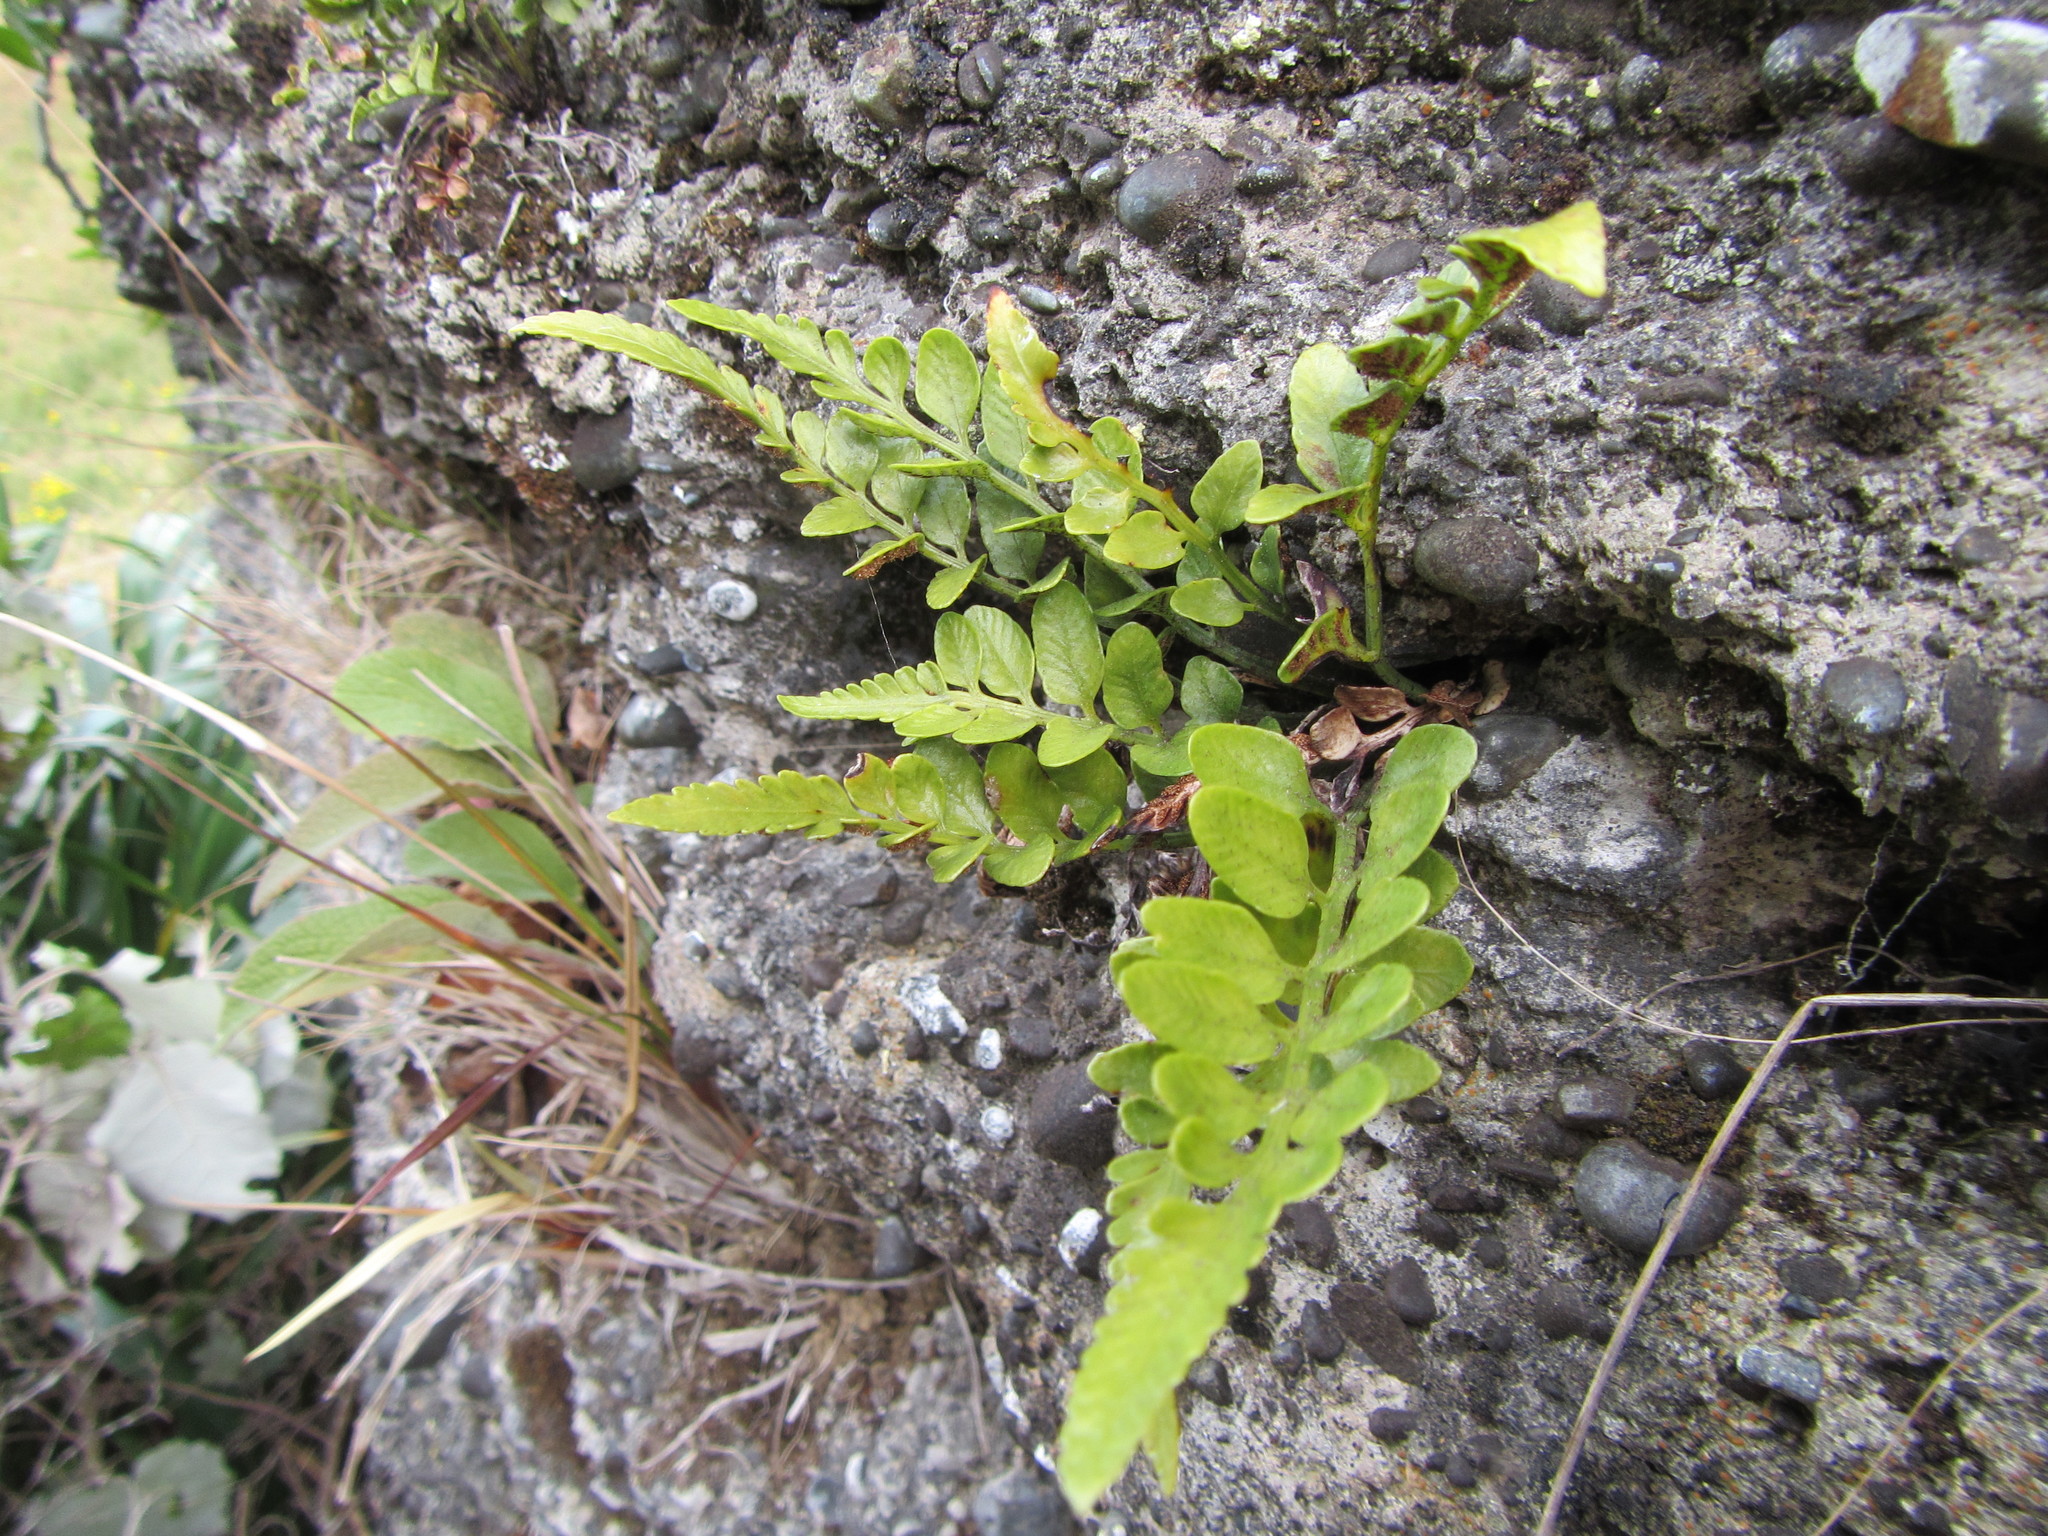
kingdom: Plantae
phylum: Tracheophyta
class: Polypodiopsida
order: Polypodiales
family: Aspleniaceae
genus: Asplenium
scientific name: Asplenium lyallii
